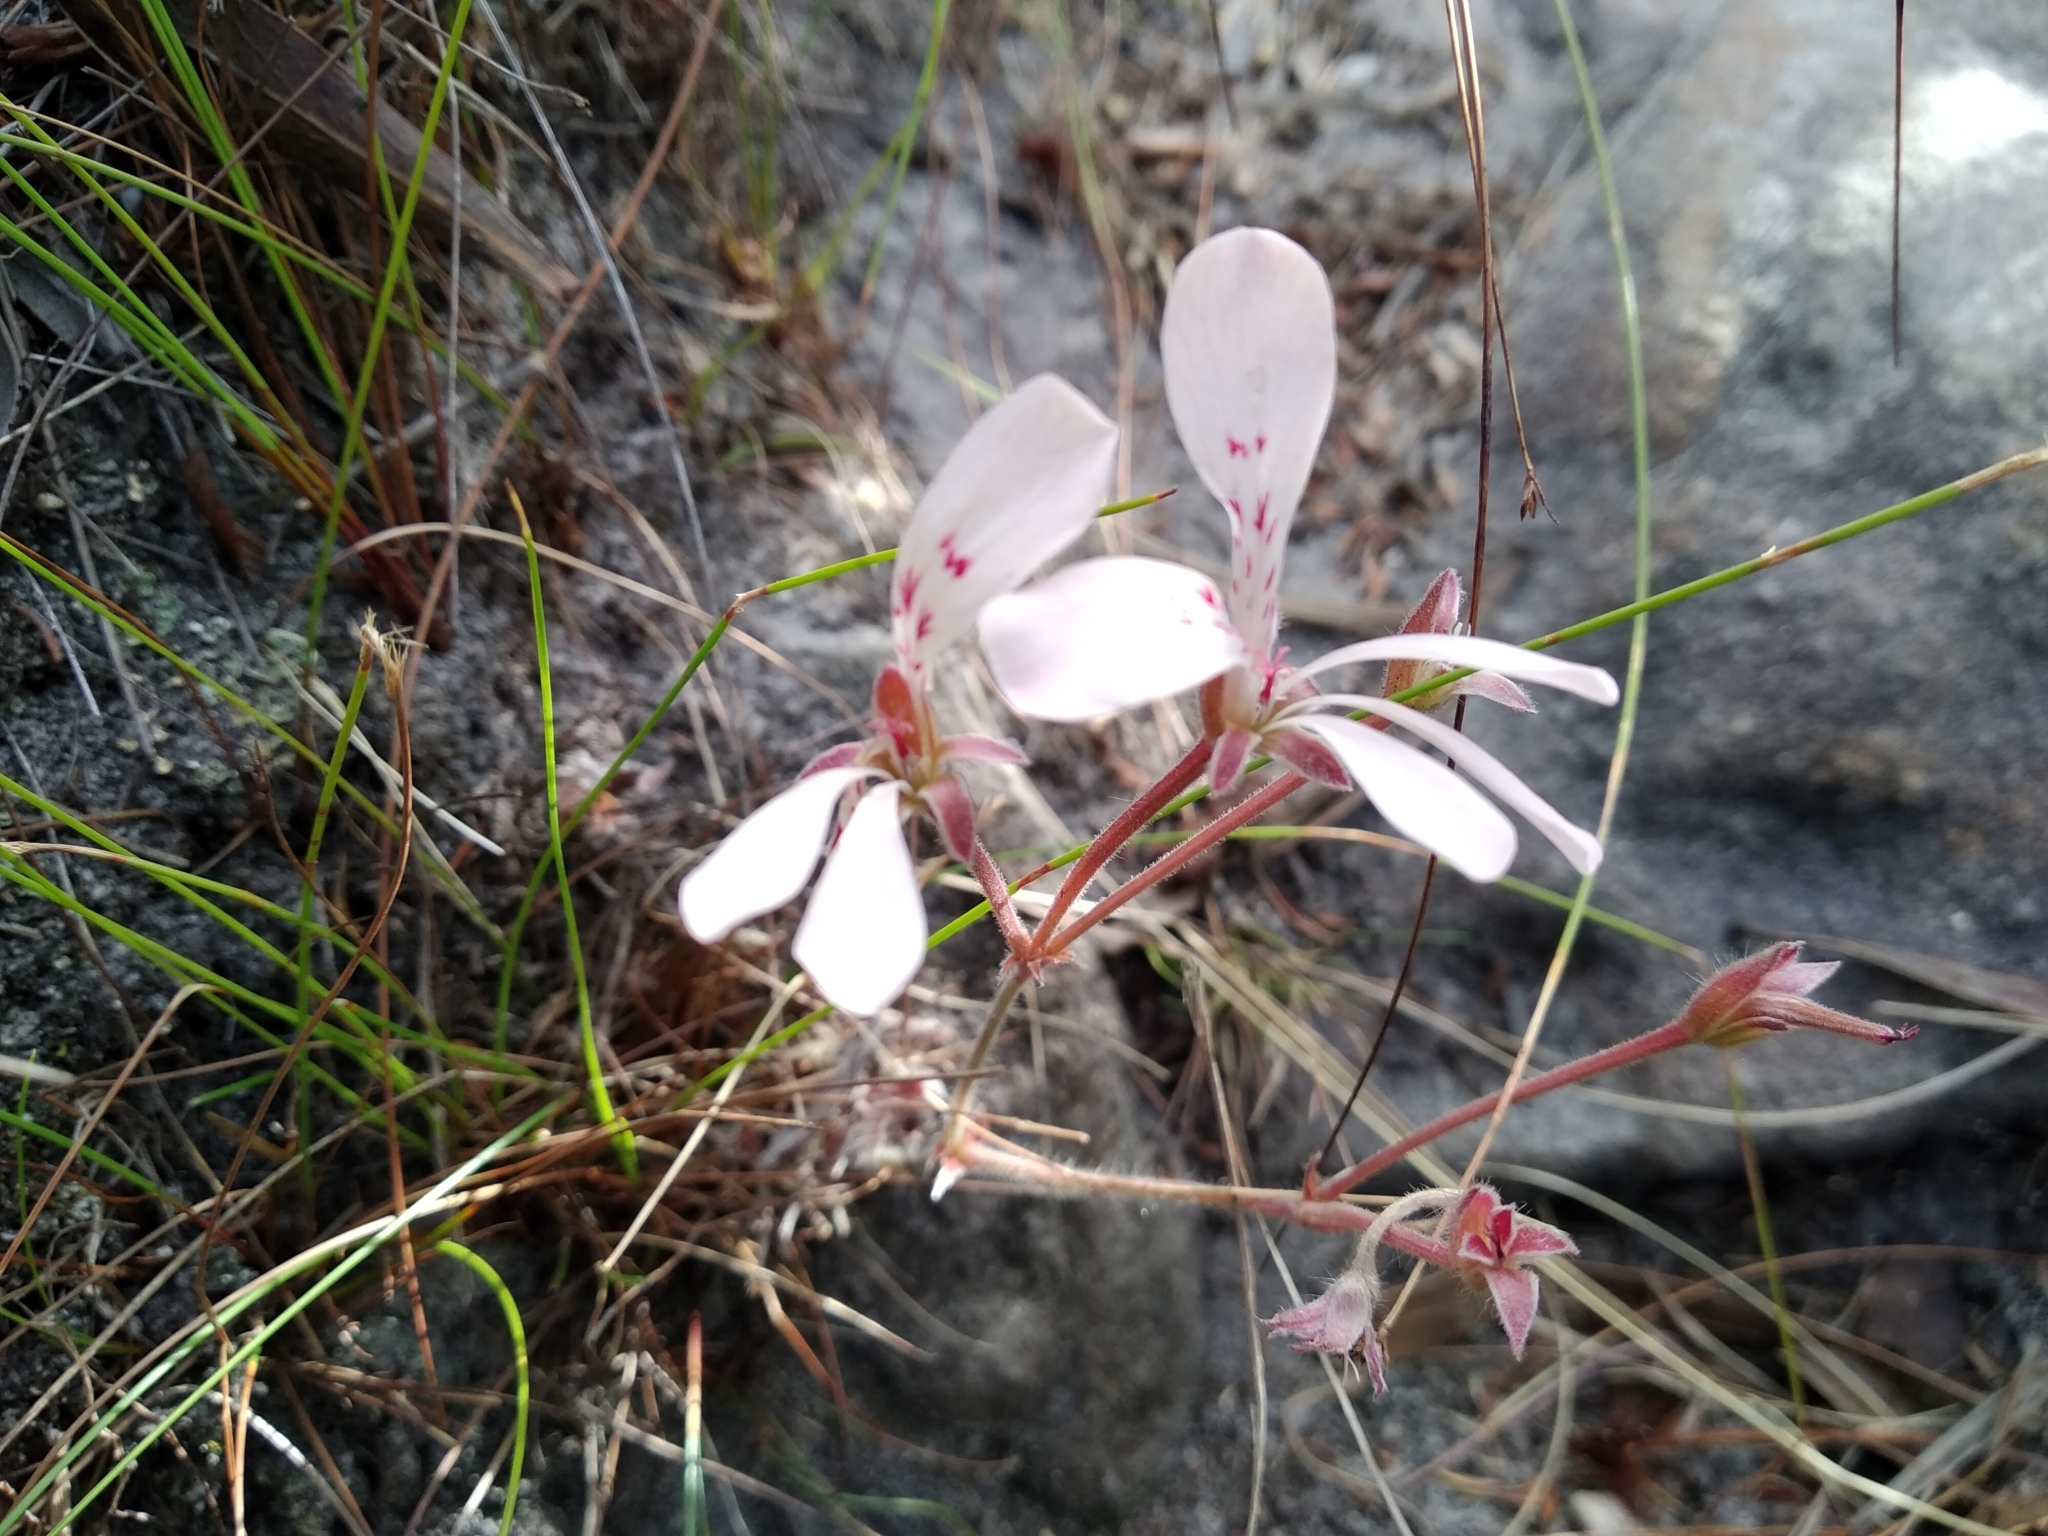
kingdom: Plantae
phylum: Tracheophyta
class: Magnoliopsida
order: Geraniales
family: Geraniaceae
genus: Pelargonium
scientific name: Pelargonium pinnatum
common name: Pinnated pelargonium
